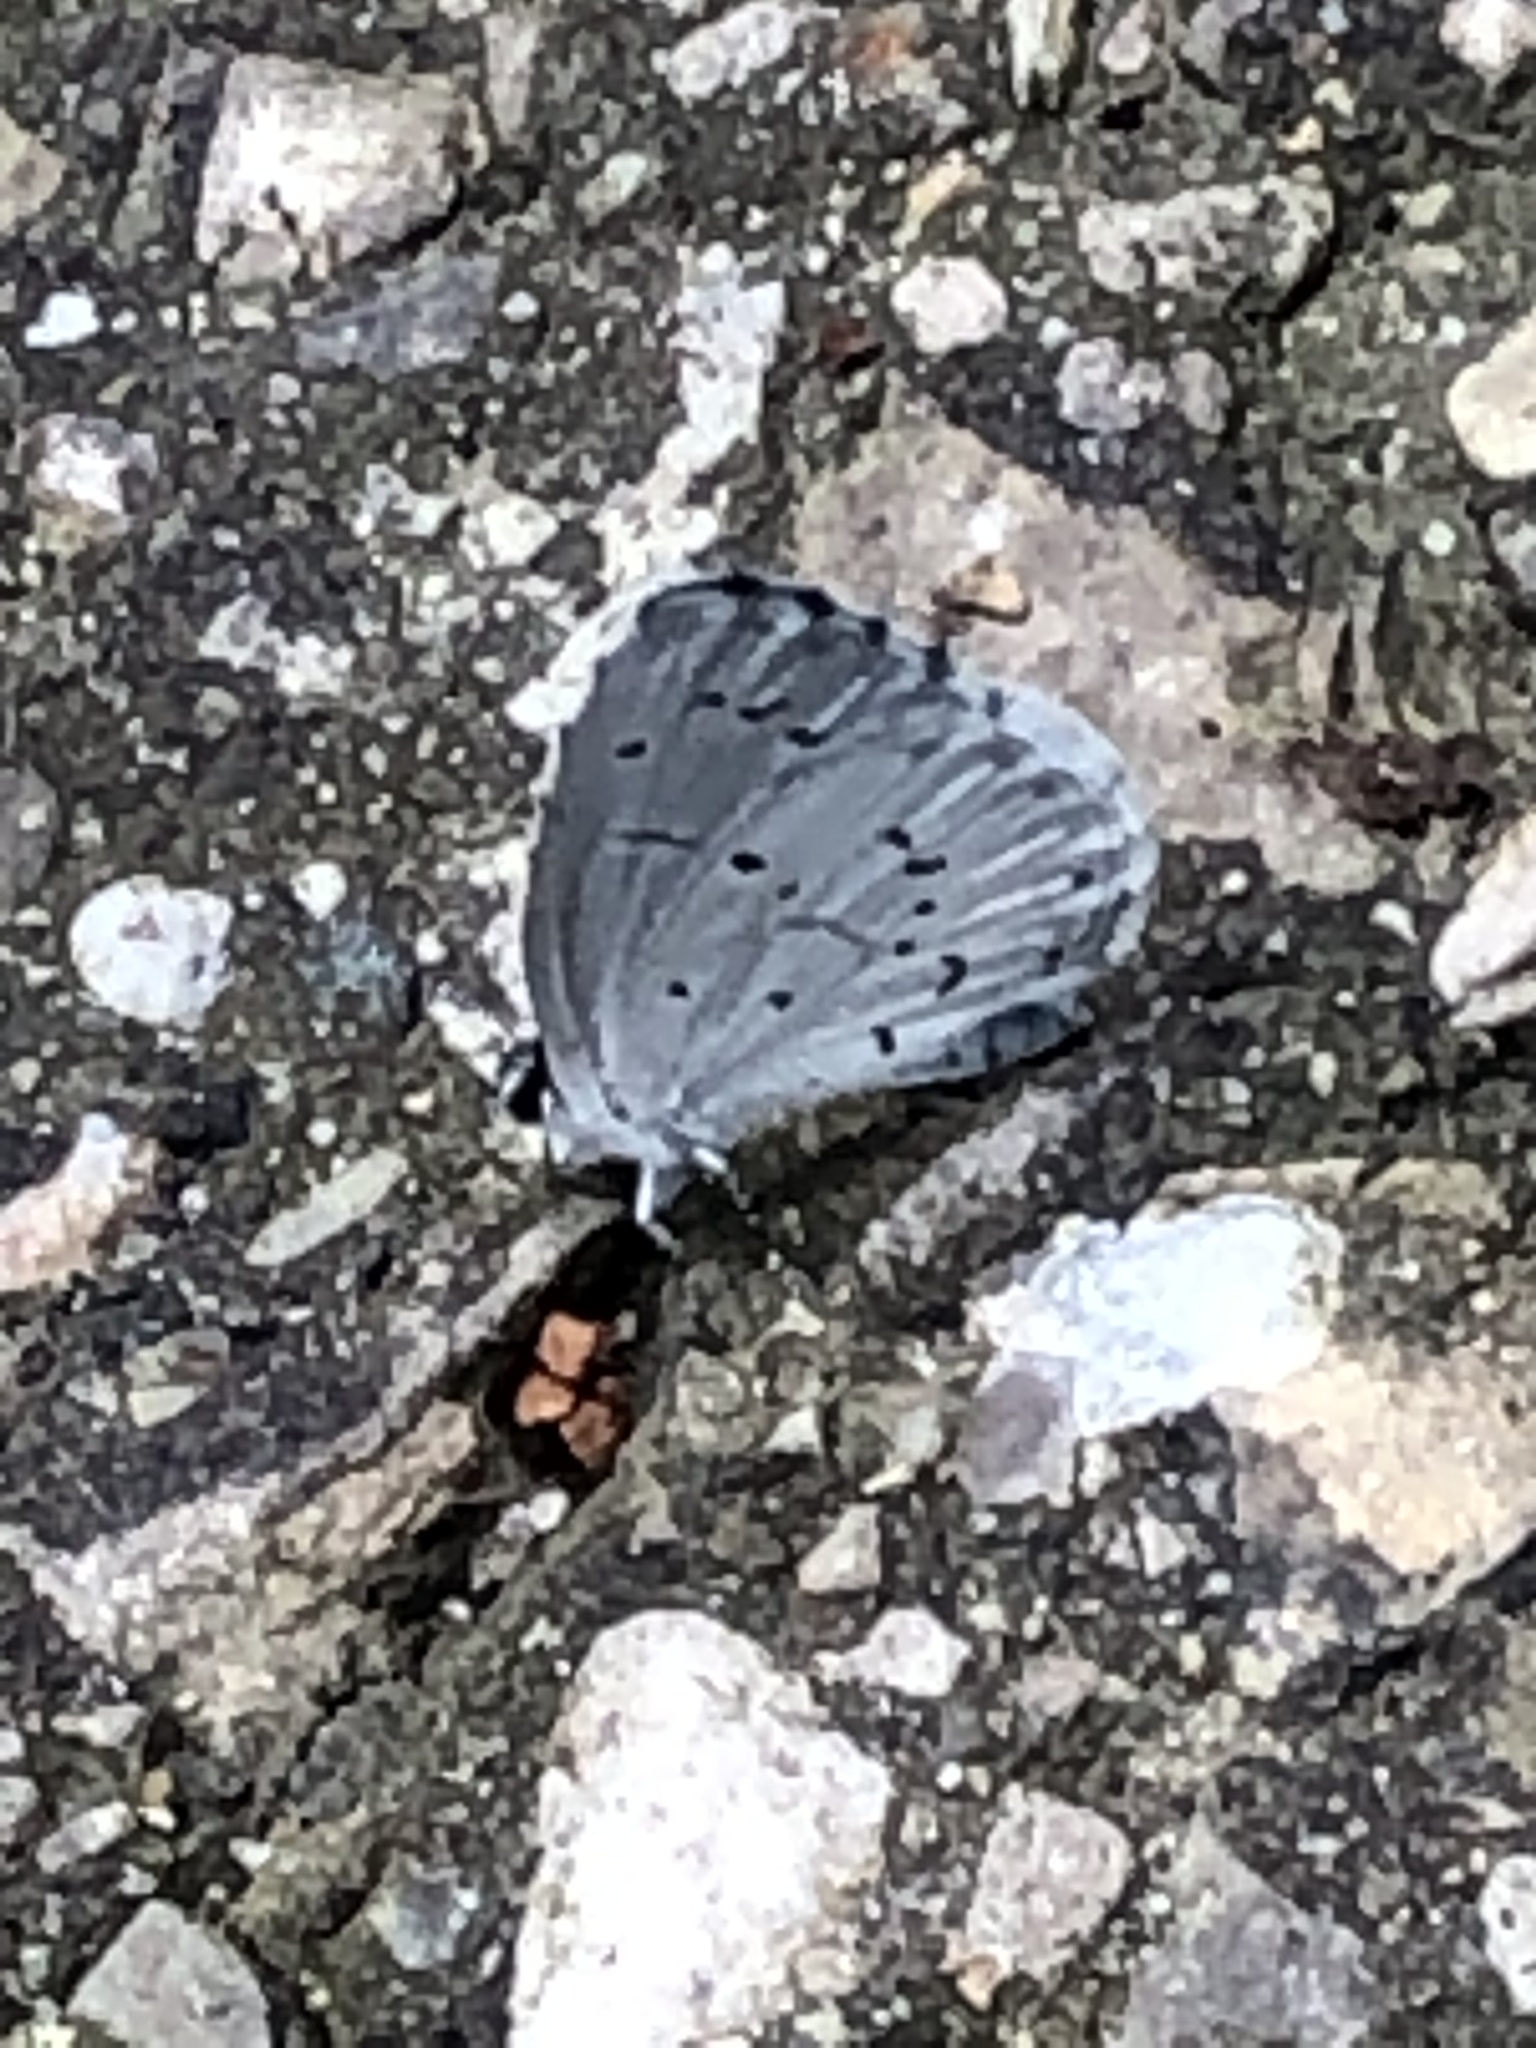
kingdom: Animalia
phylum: Arthropoda
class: Insecta
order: Lepidoptera
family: Lycaenidae
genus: Cyaniris
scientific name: Cyaniris neglecta
